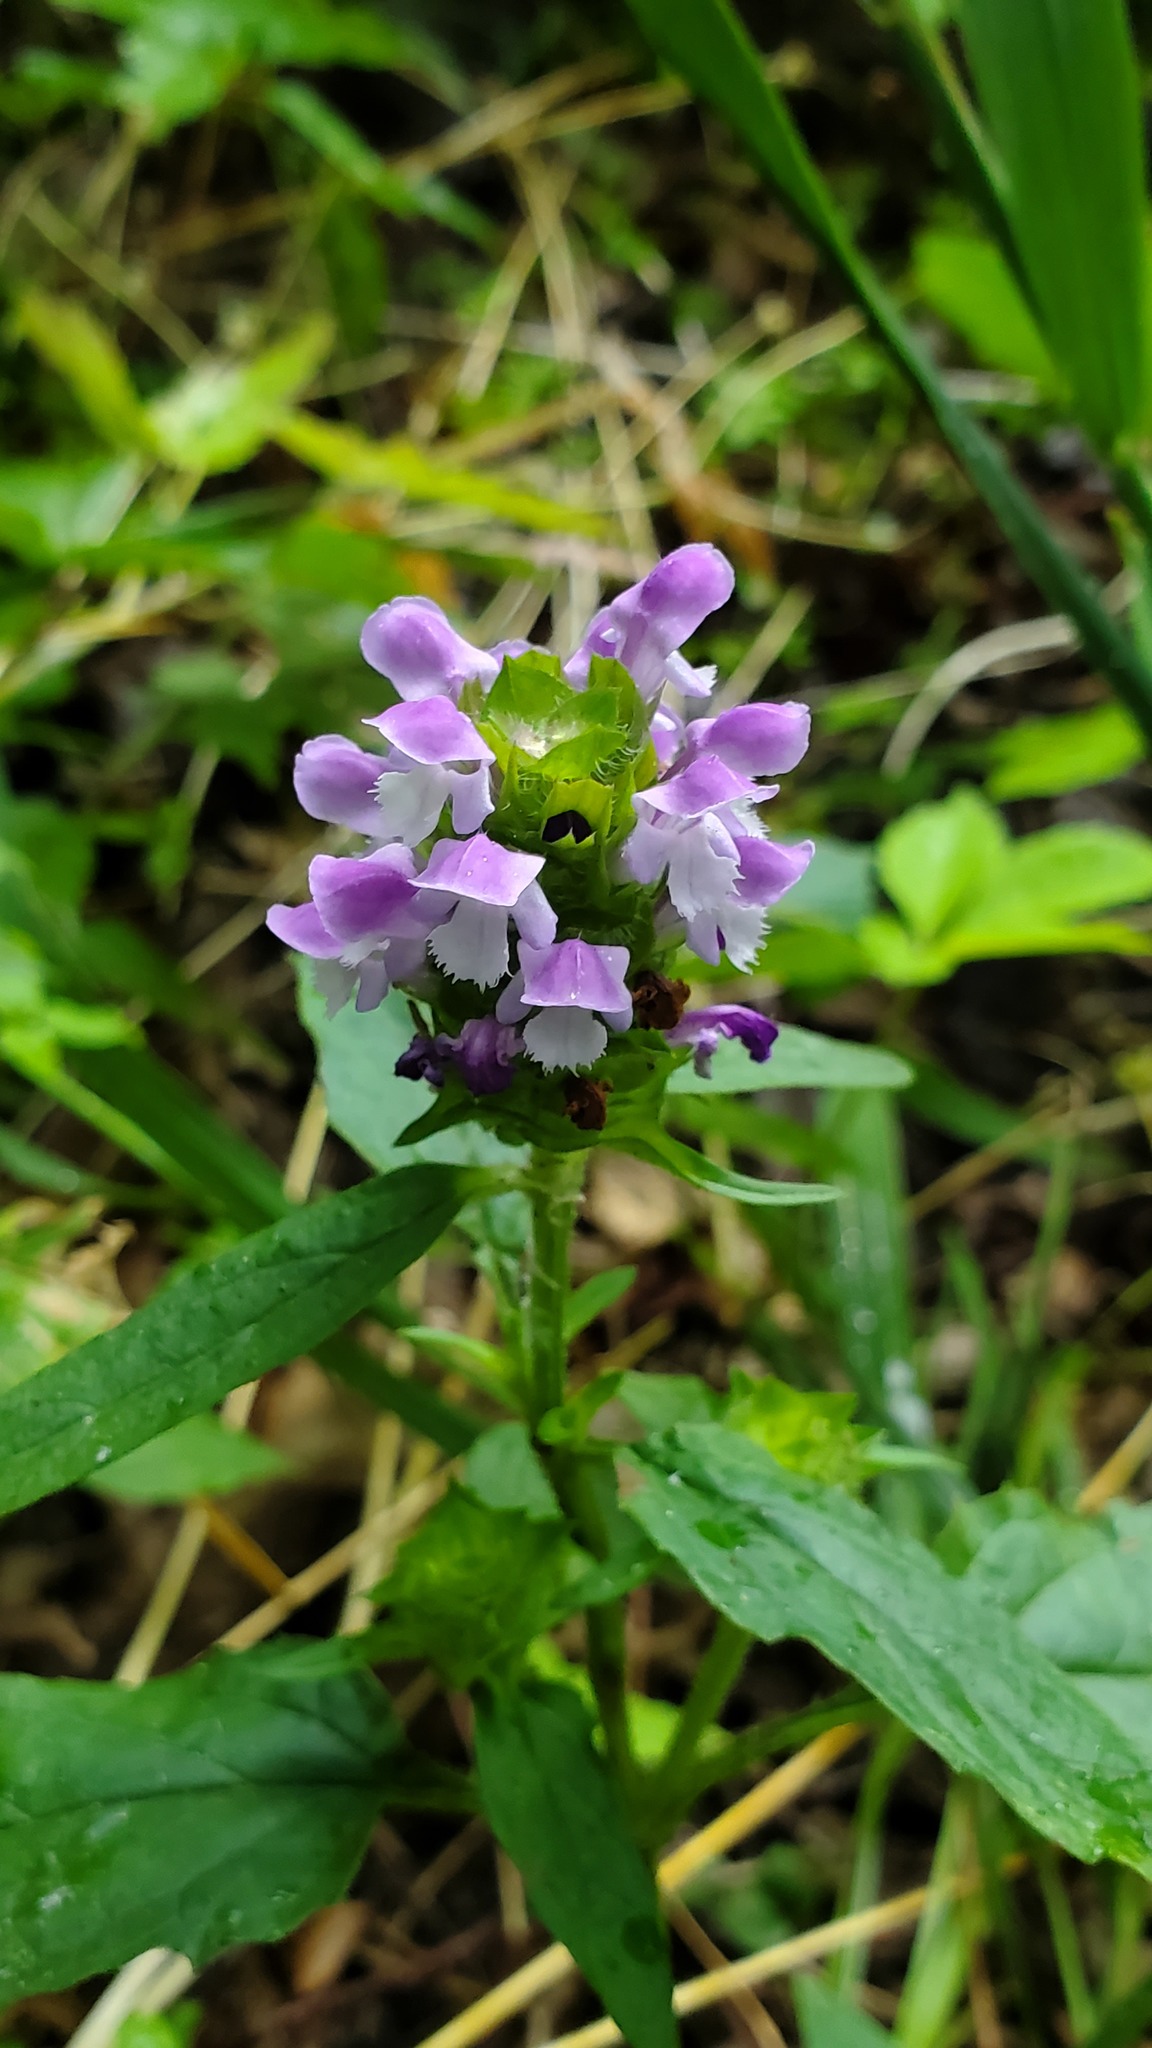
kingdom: Plantae
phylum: Tracheophyta
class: Magnoliopsida
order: Lamiales
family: Lamiaceae
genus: Prunella
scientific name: Prunella vulgaris
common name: Heal-all
